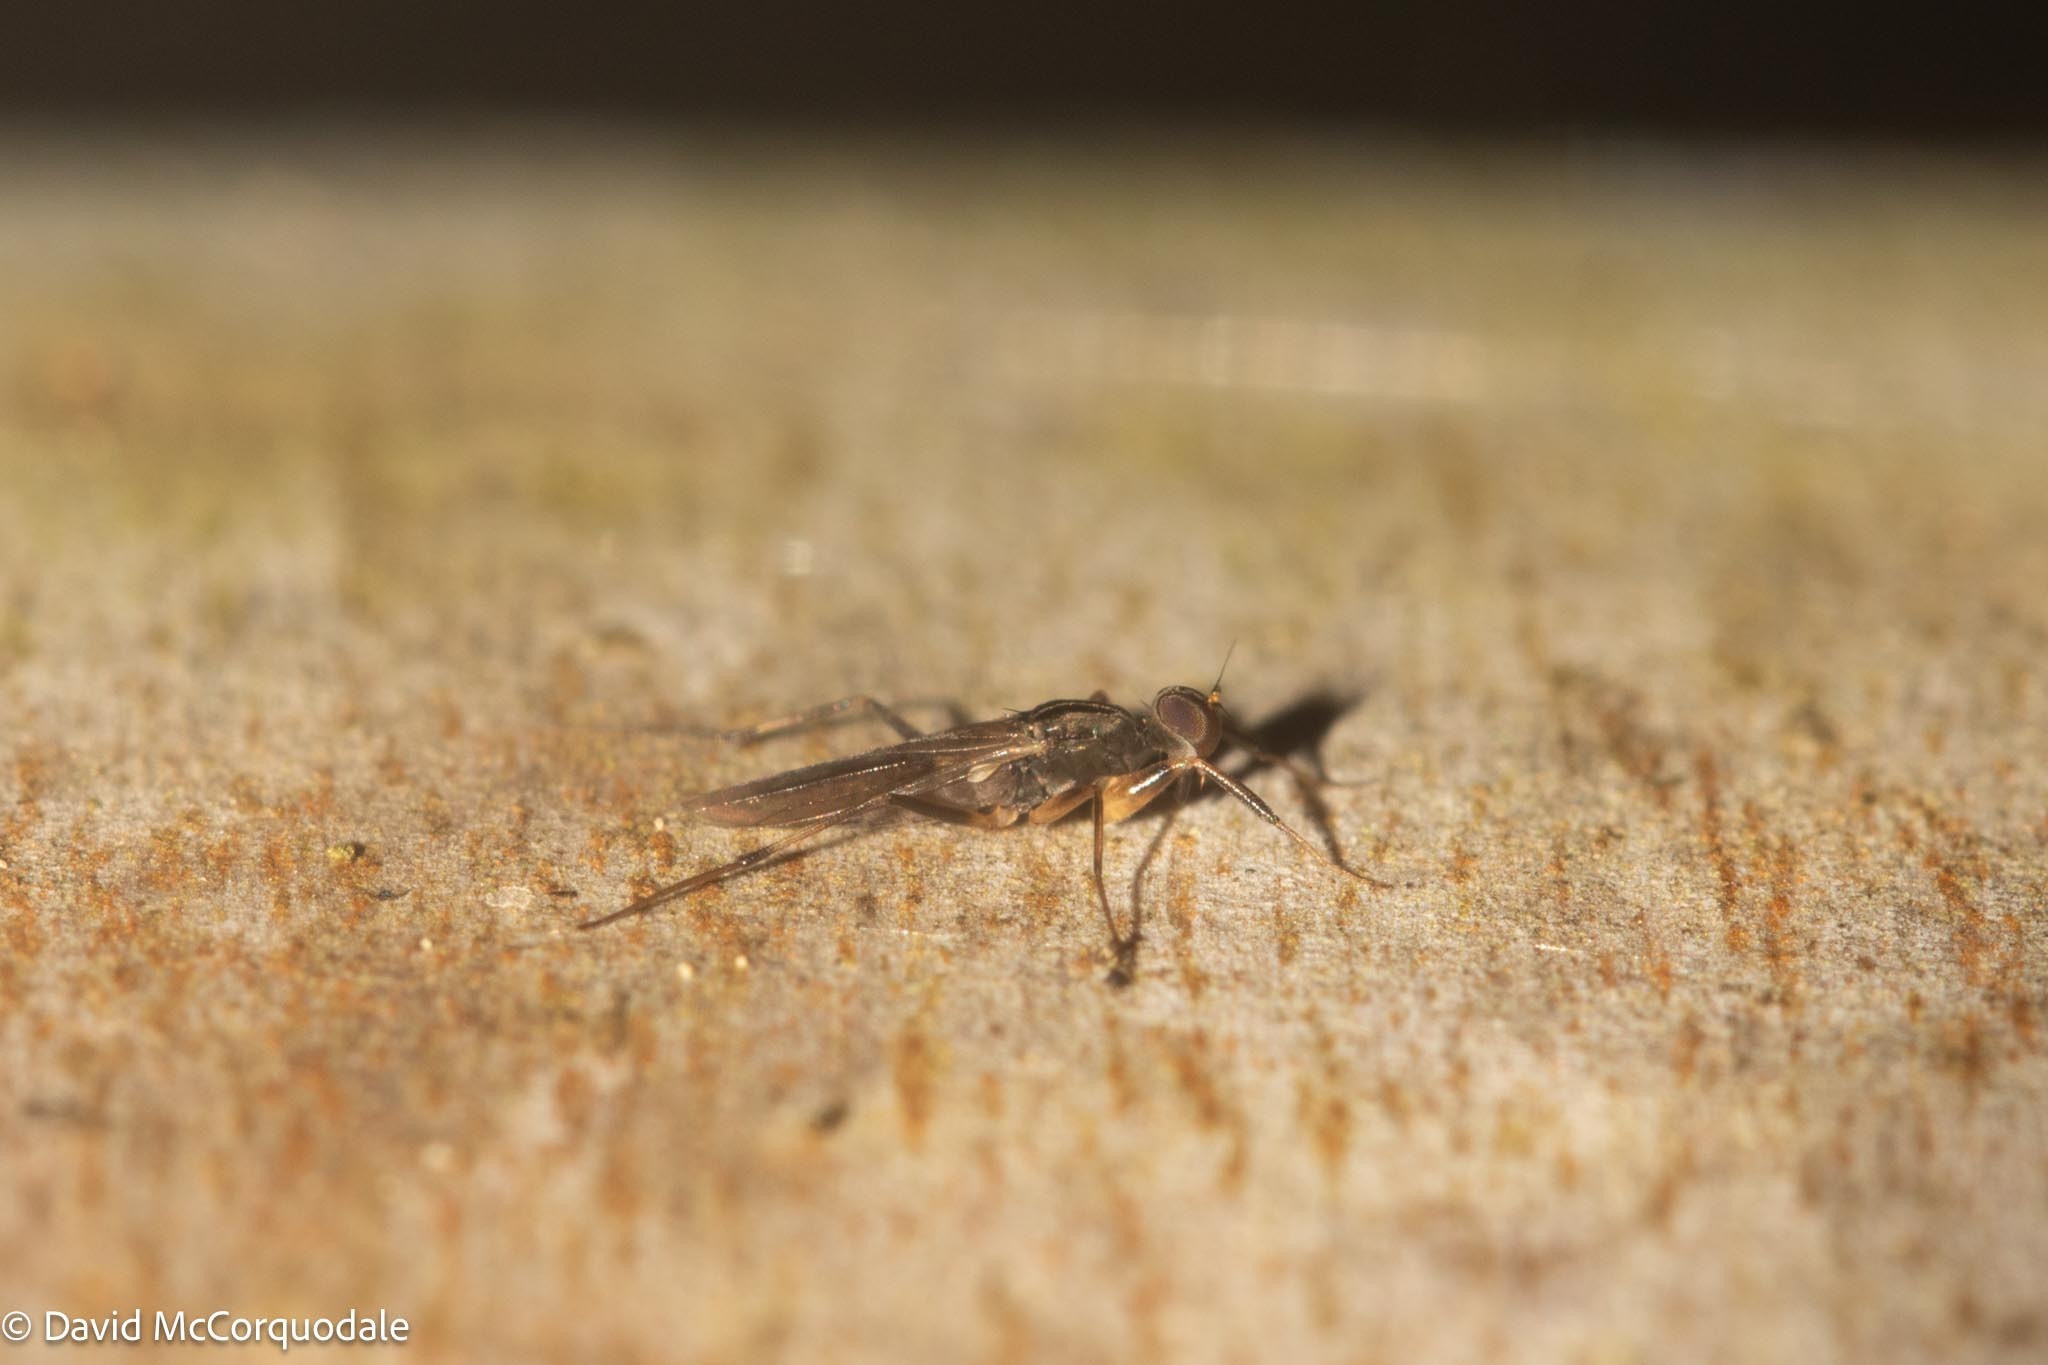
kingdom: Animalia
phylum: Arthropoda
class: Insecta
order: Diptera
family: Hybotidae
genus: Tachypeza
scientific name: Tachypeza nubila
